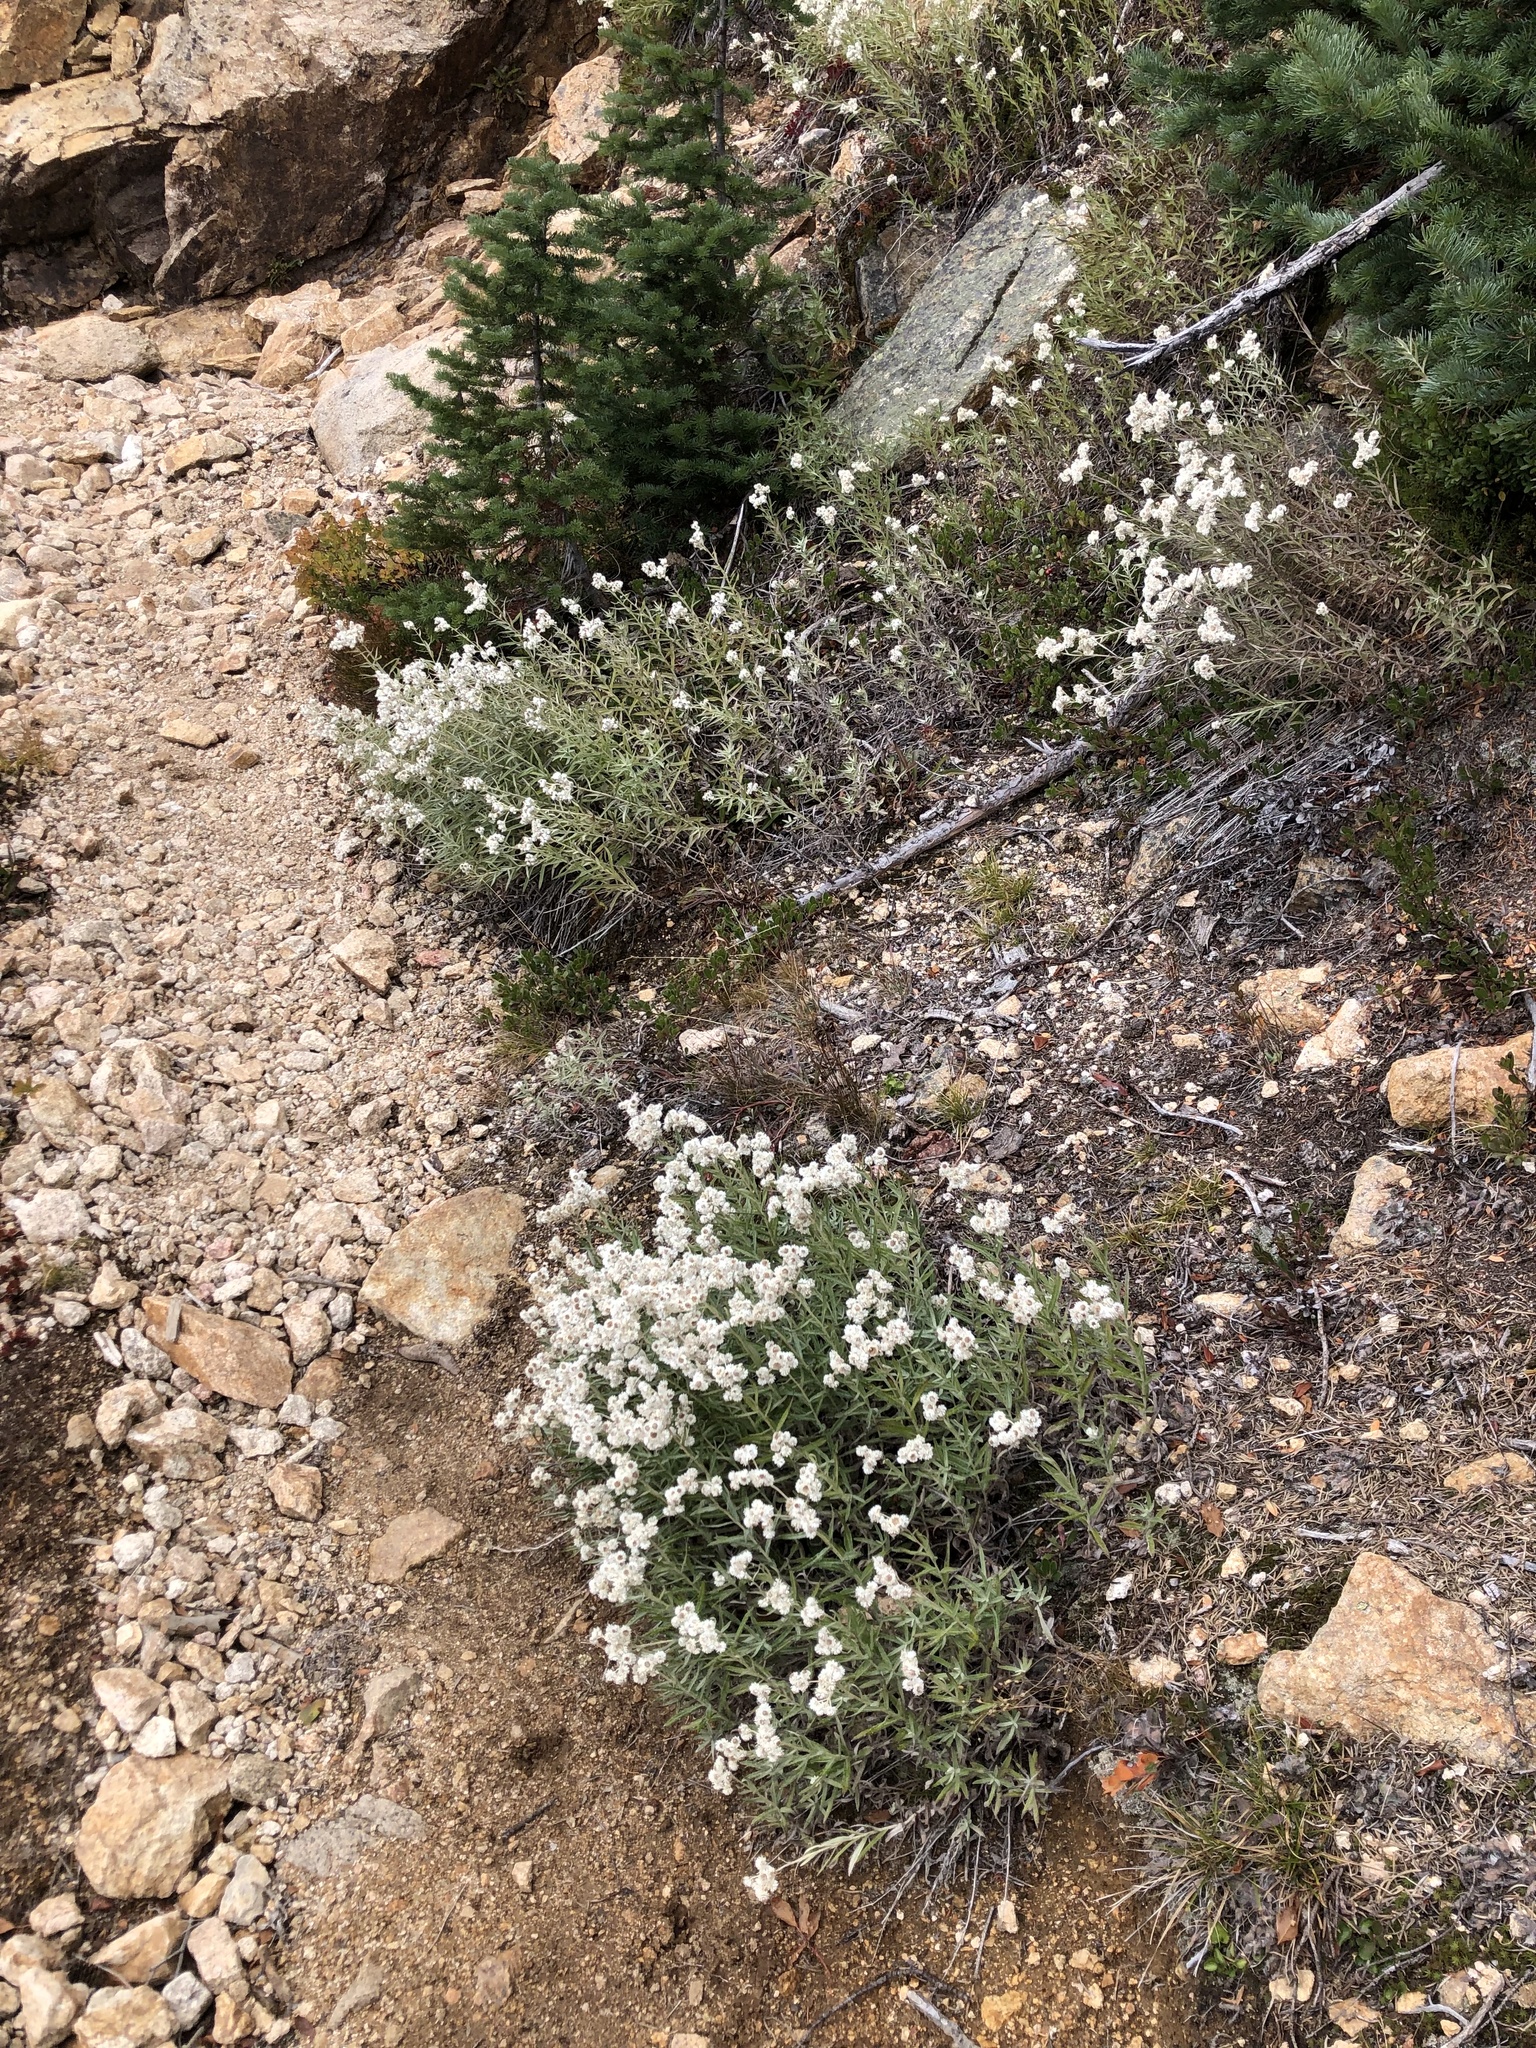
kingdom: Plantae
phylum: Tracheophyta
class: Magnoliopsida
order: Asterales
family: Asteraceae
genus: Anaphalis
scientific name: Anaphalis margaritacea
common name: Pearly everlasting
